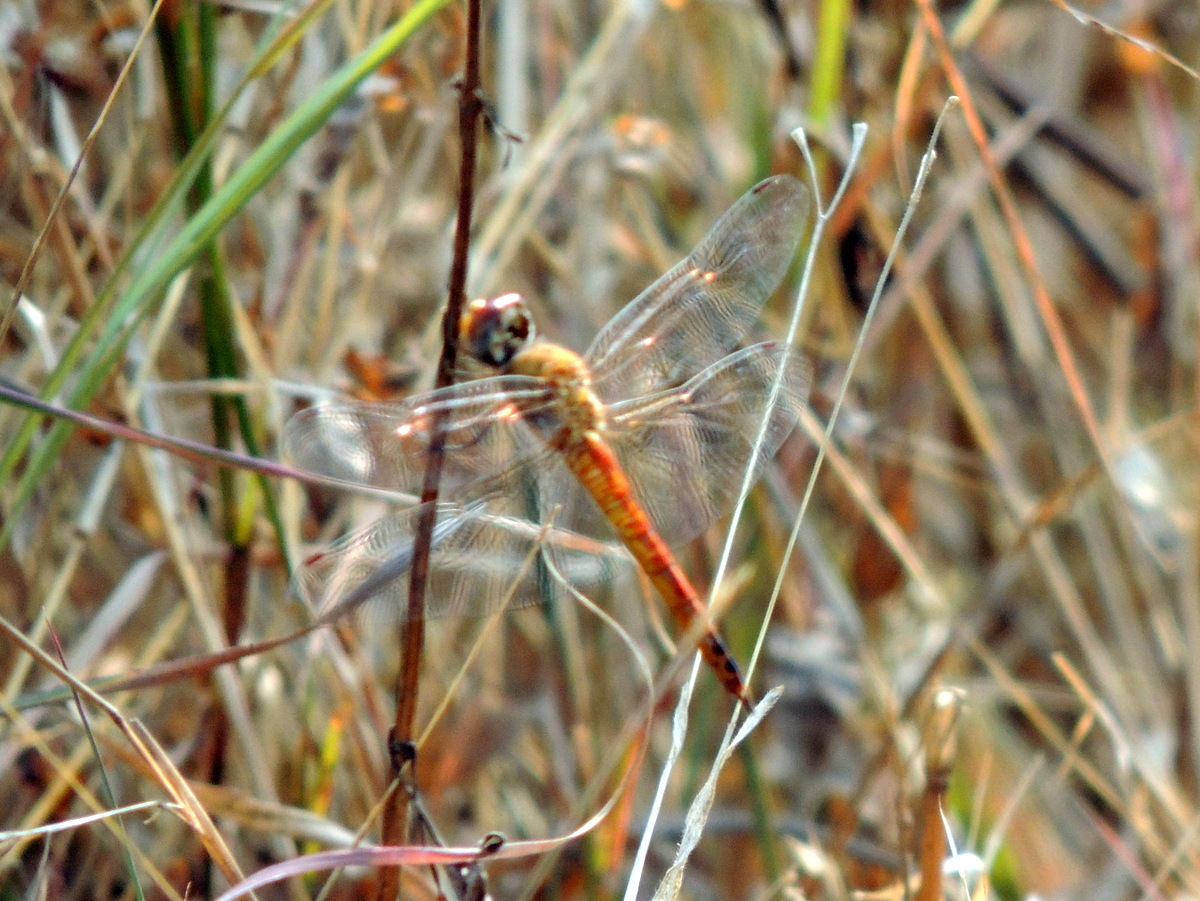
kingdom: Animalia
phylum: Arthropoda
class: Insecta
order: Odonata
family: Libellulidae
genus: Pantala
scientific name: Pantala flavescens
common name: Wandering glider
